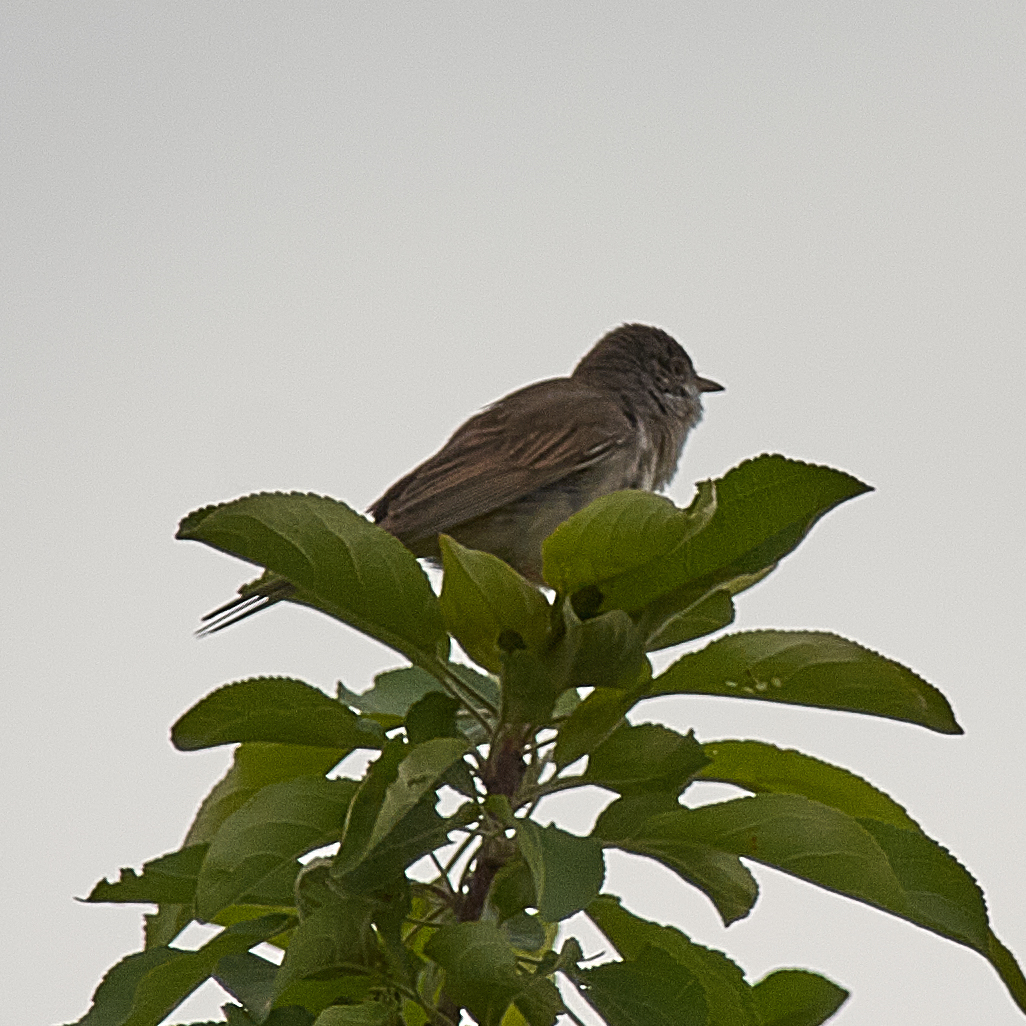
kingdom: Animalia
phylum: Chordata
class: Aves
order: Passeriformes
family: Sylviidae
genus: Sylvia
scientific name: Sylvia communis
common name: Common whitethroat
